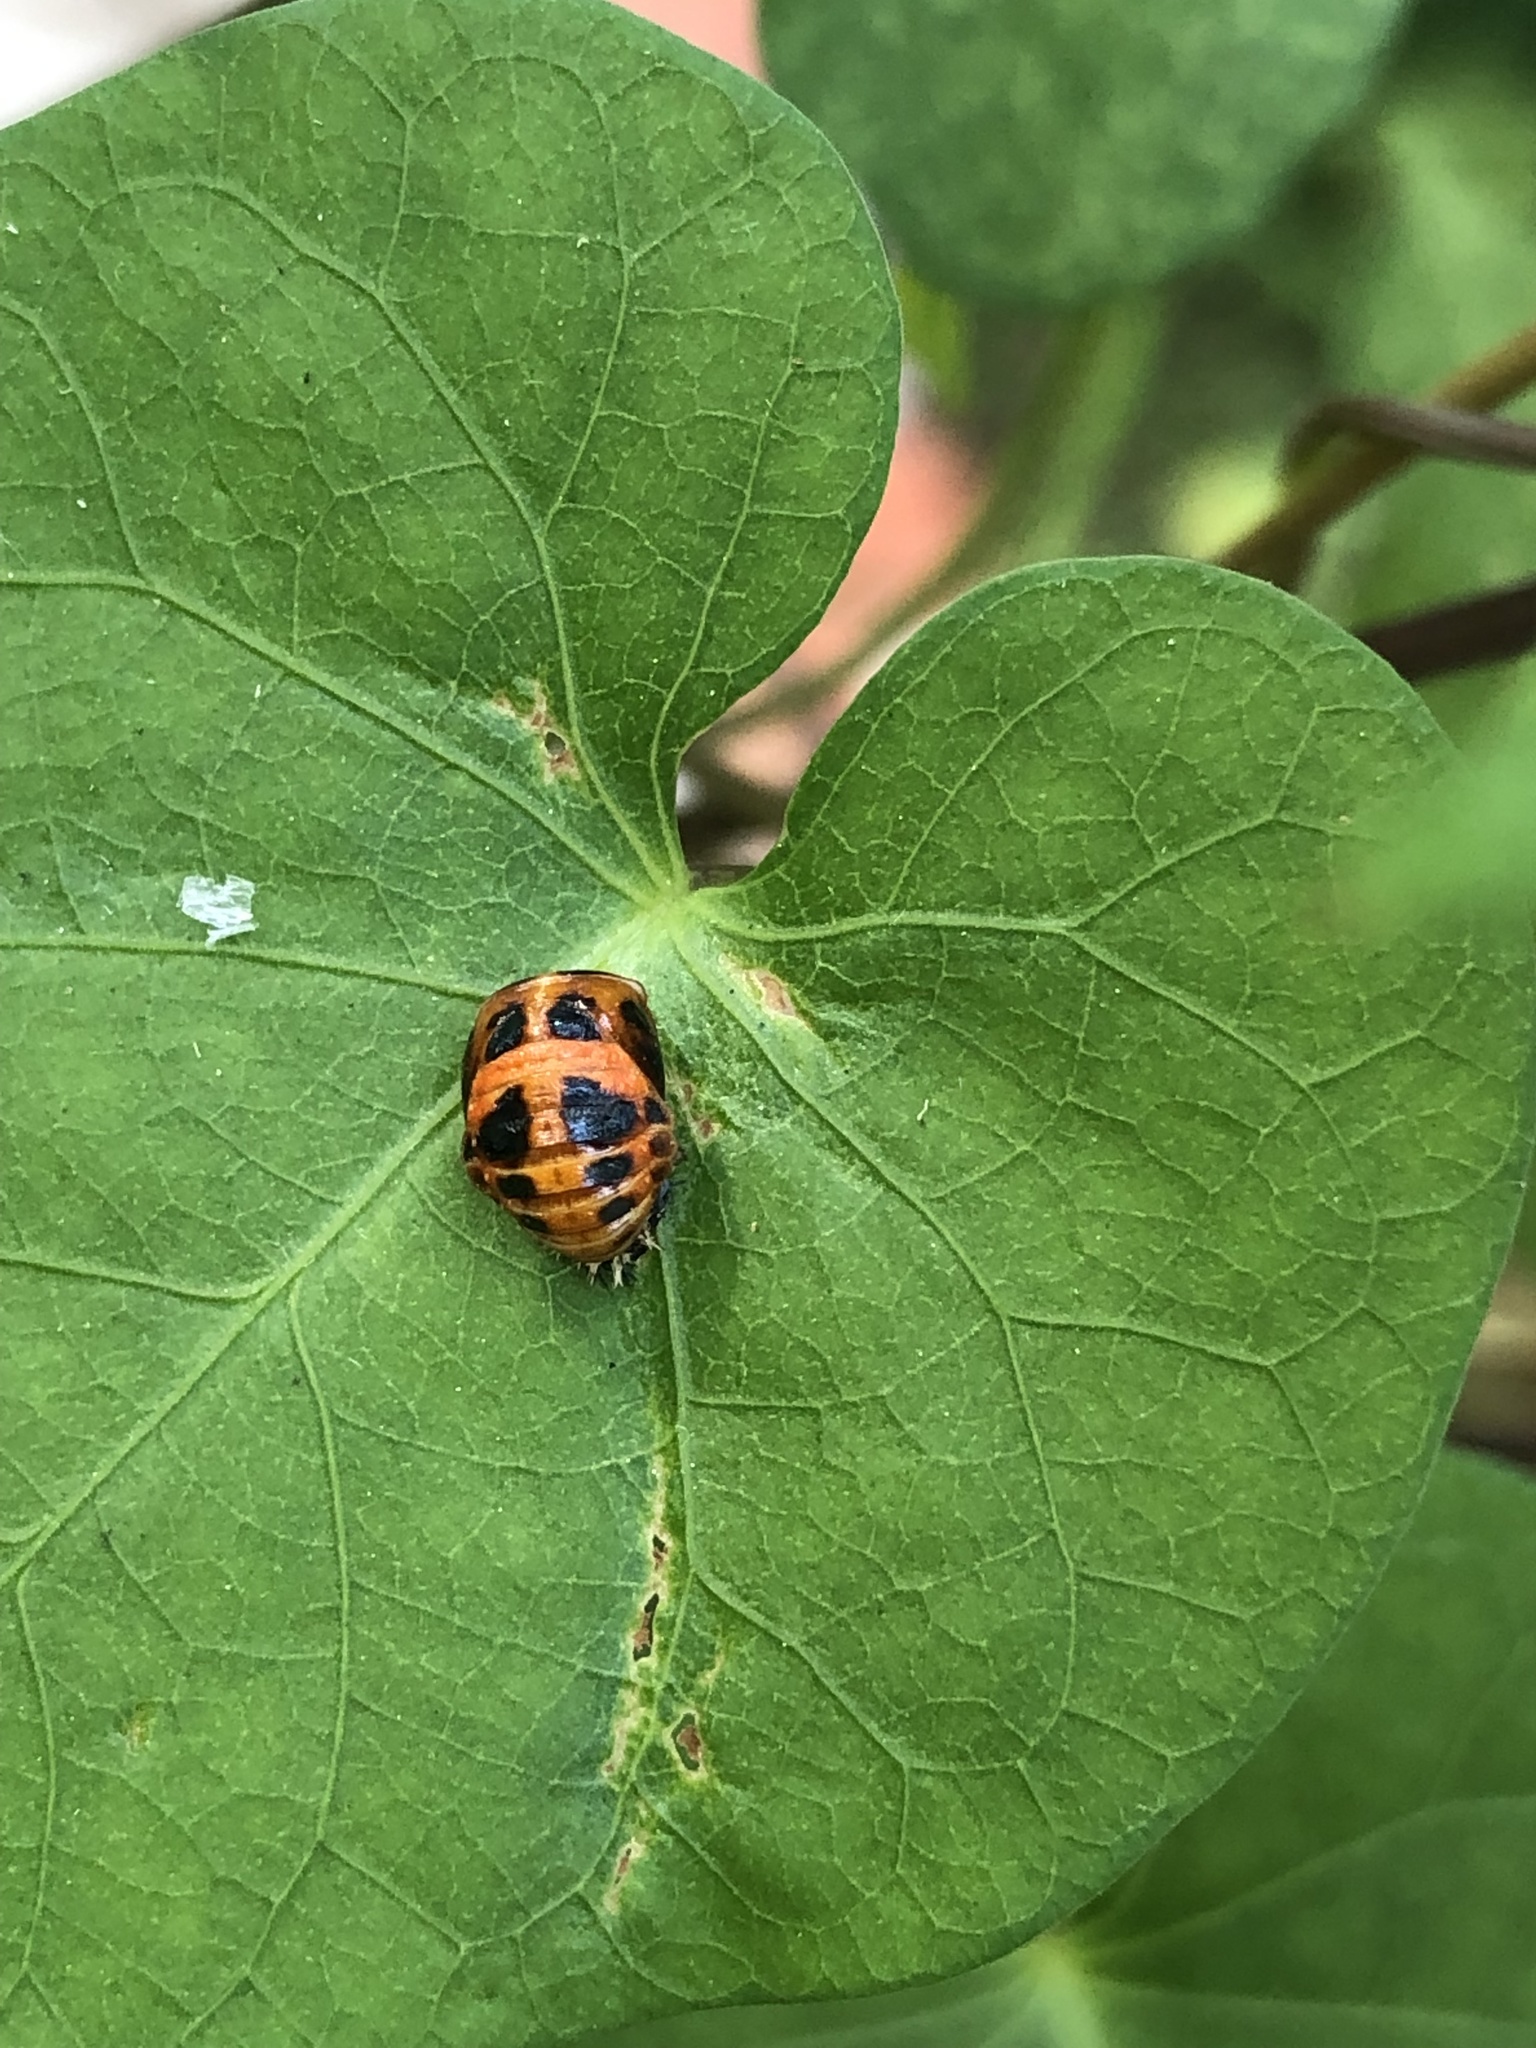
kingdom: Animalia
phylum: Arthropoda
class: Insecta
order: Coleoptera
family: Coccinellidae
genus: Harmonia
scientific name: Harmonia axyridis
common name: Harlequin ladybird
